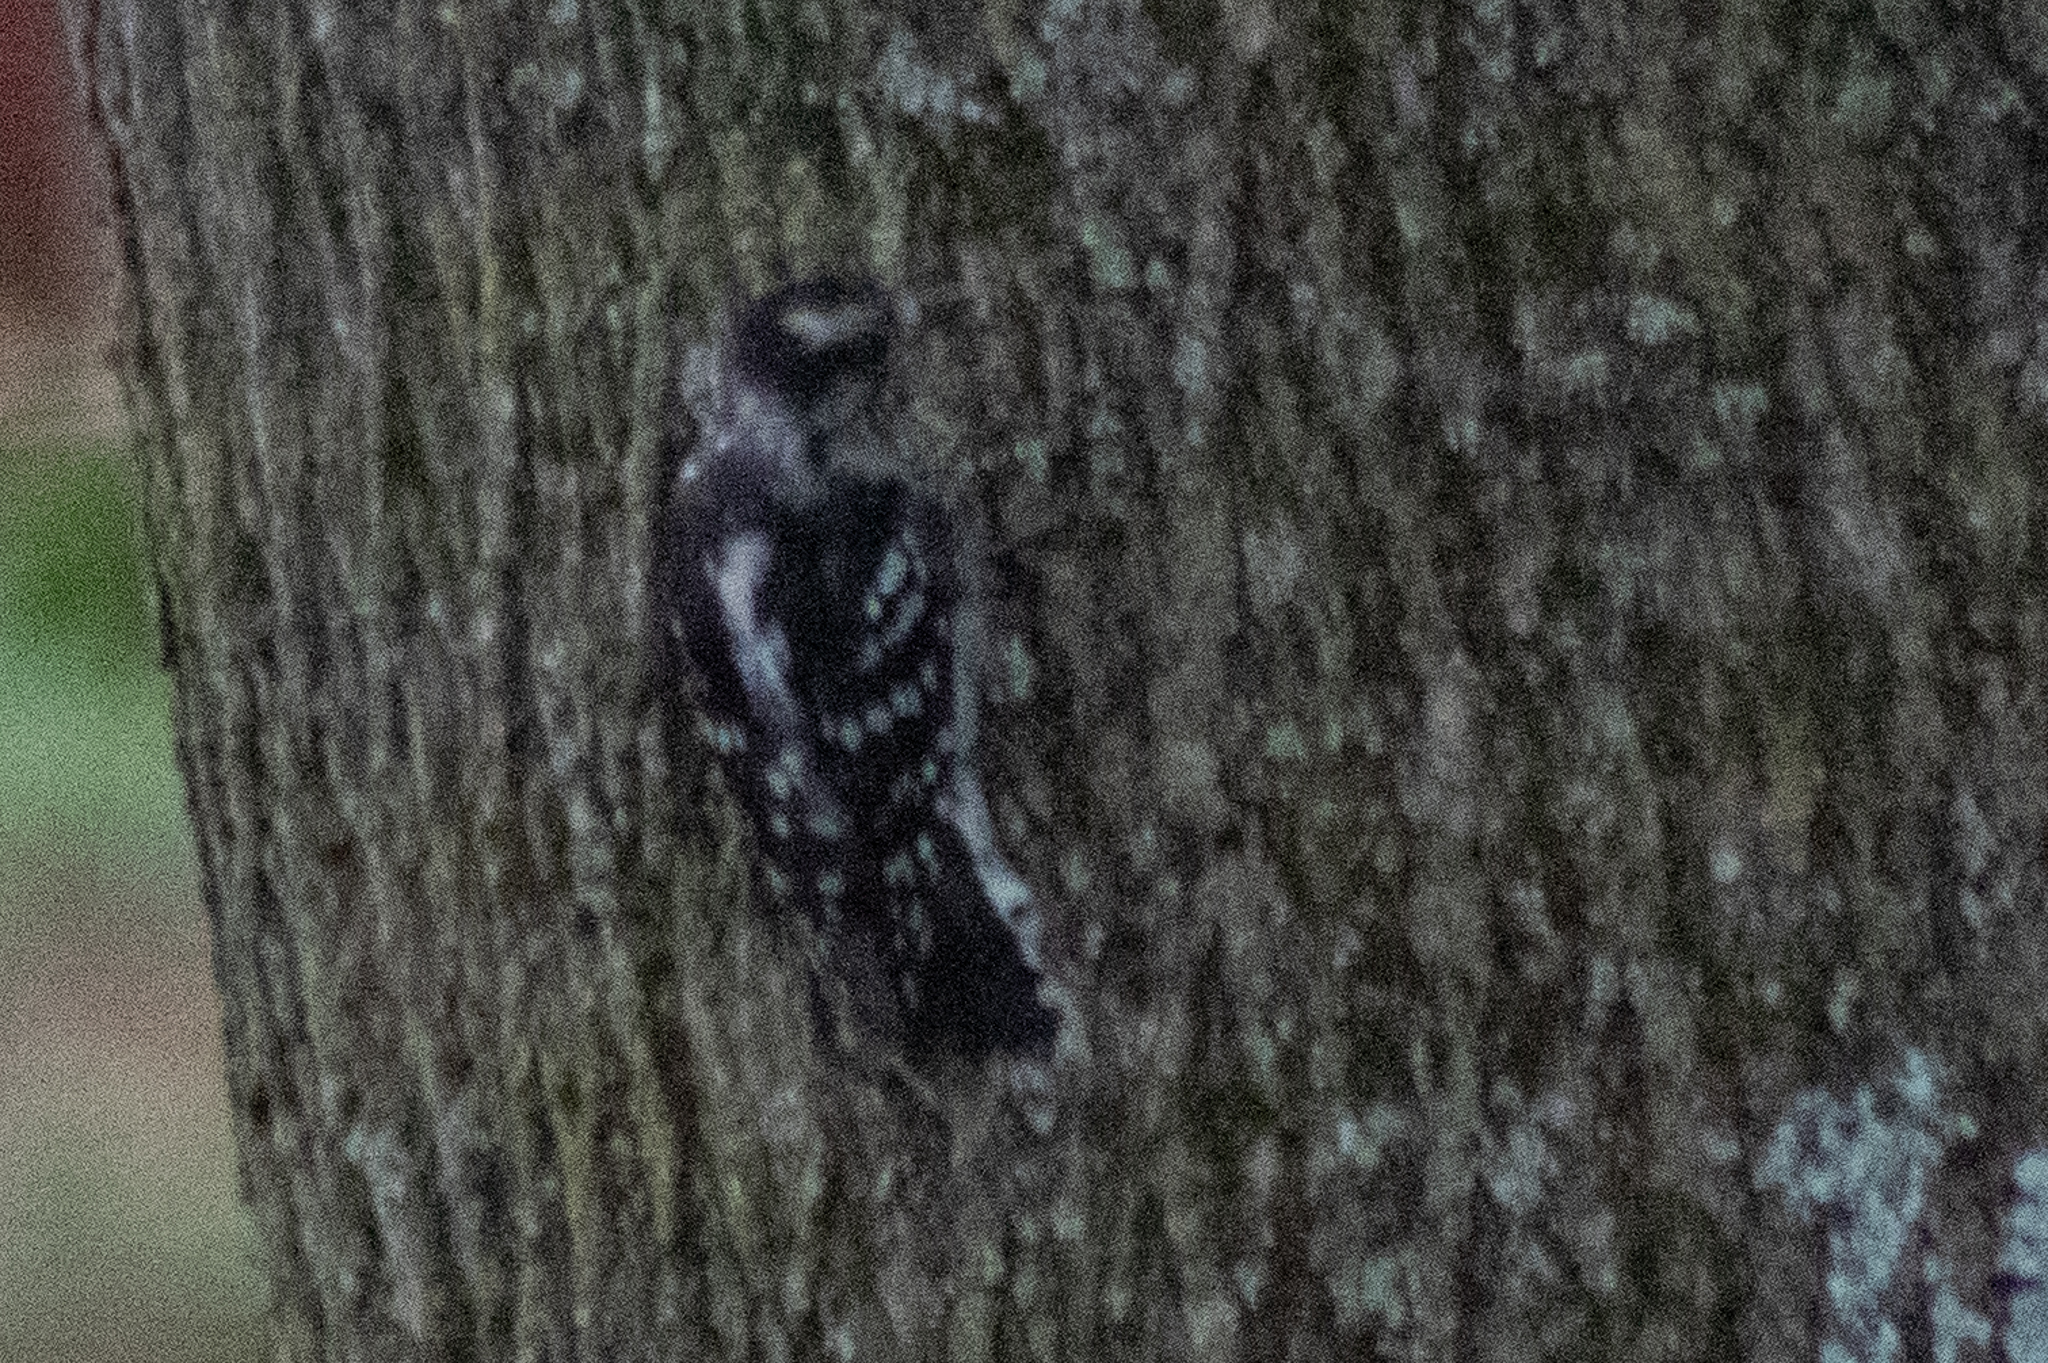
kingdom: Animalia
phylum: Chordata
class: Aves
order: Piciformes
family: Picidae
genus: Dryobates
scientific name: Dryobates pubescens
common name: Downy woodpecker
